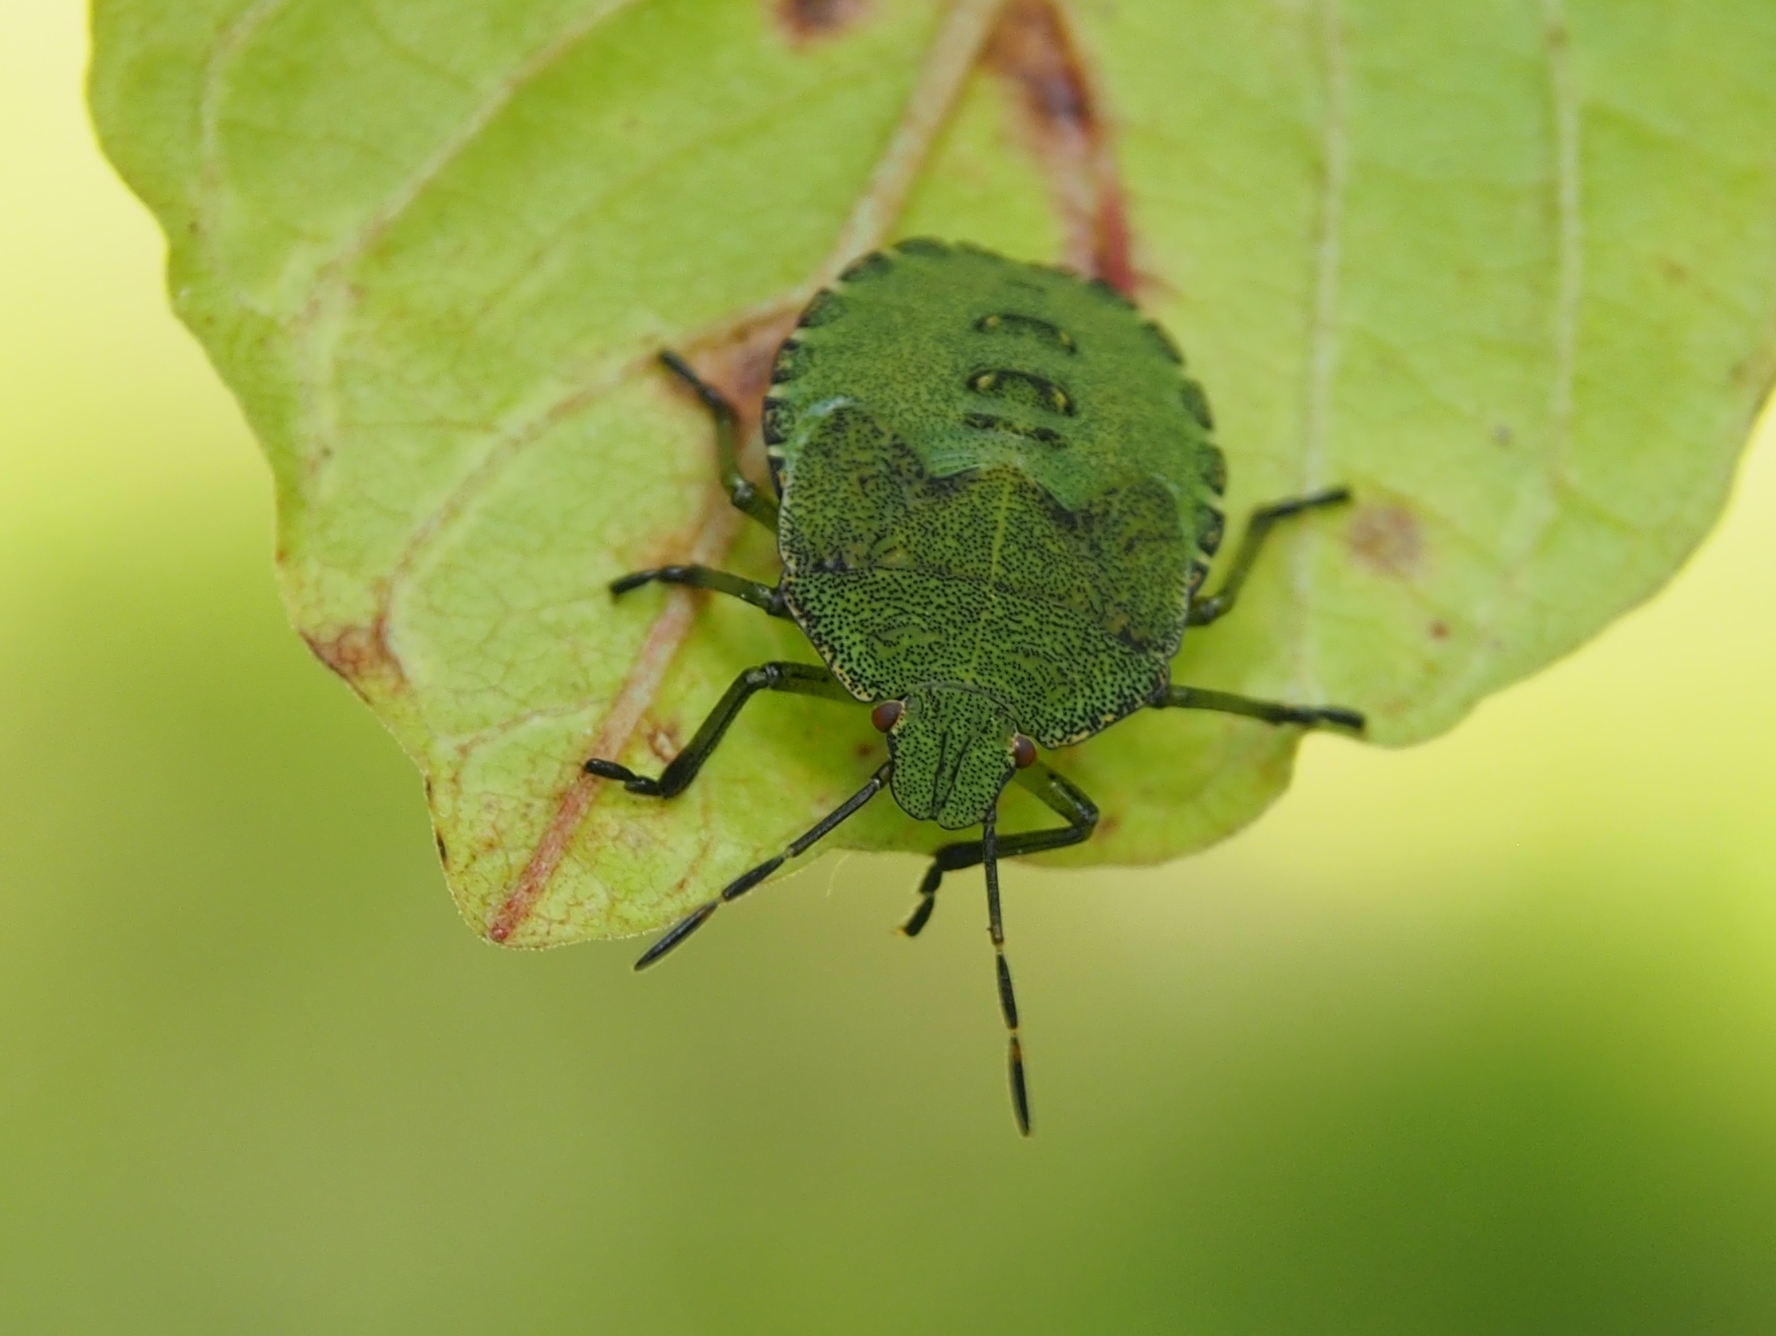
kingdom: Animalia
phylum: Arthropoda
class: Insecta
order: Hemiptera
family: Pentatomidae
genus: Palomena
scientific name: Palomena prasina
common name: Green shieldbug
